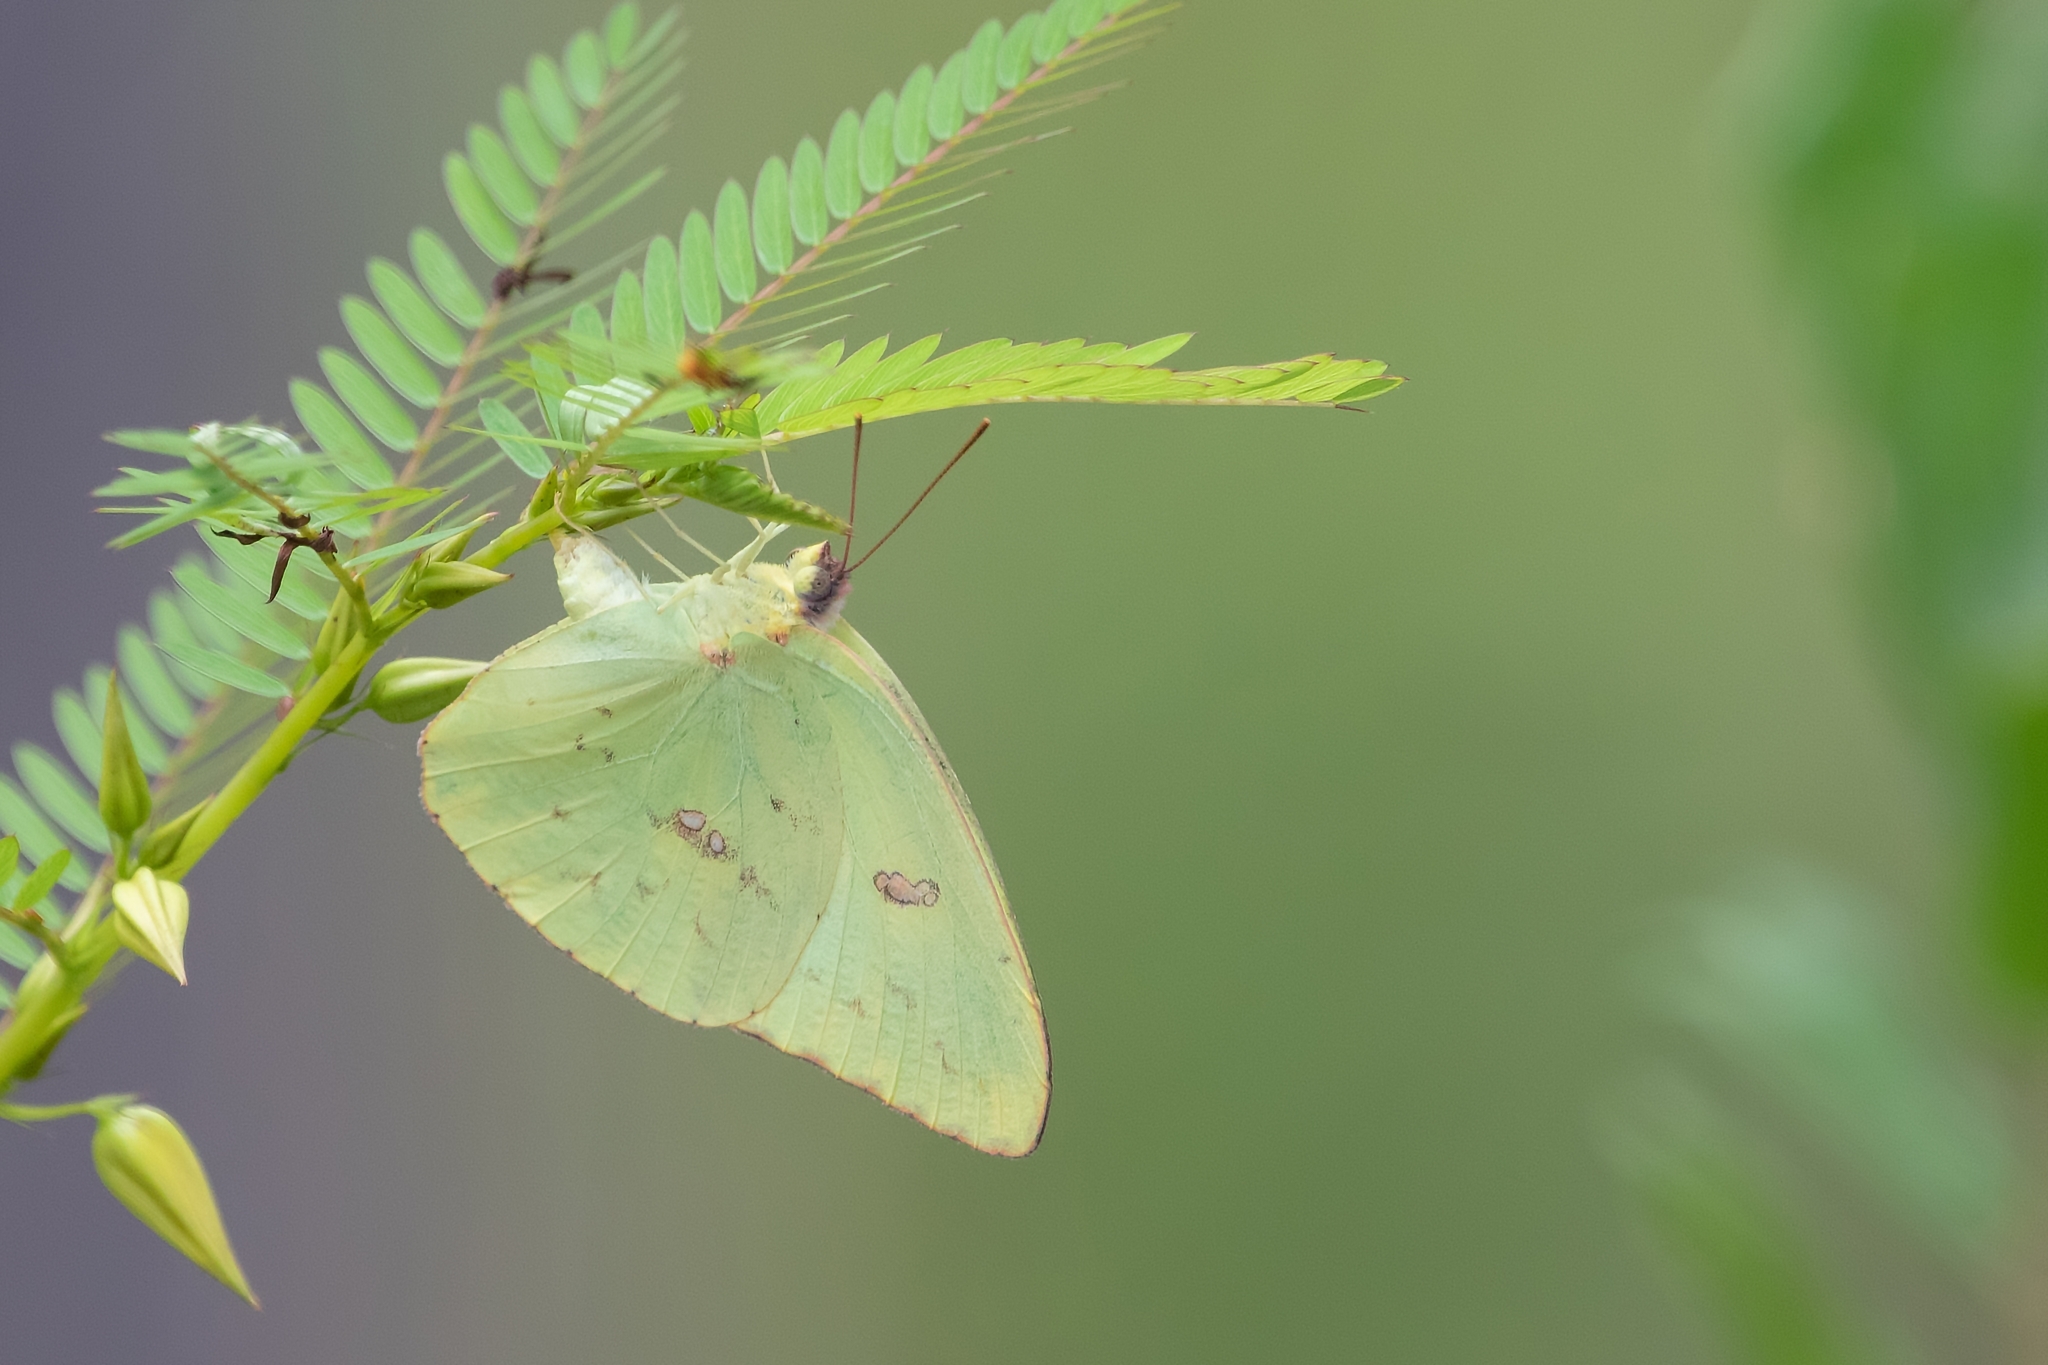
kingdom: Animalia
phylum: Arthropoda
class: Insecta
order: Lepidoptera
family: Pieridae
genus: Phoebis
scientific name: Phoebis sennae
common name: Cloudless sulphur
